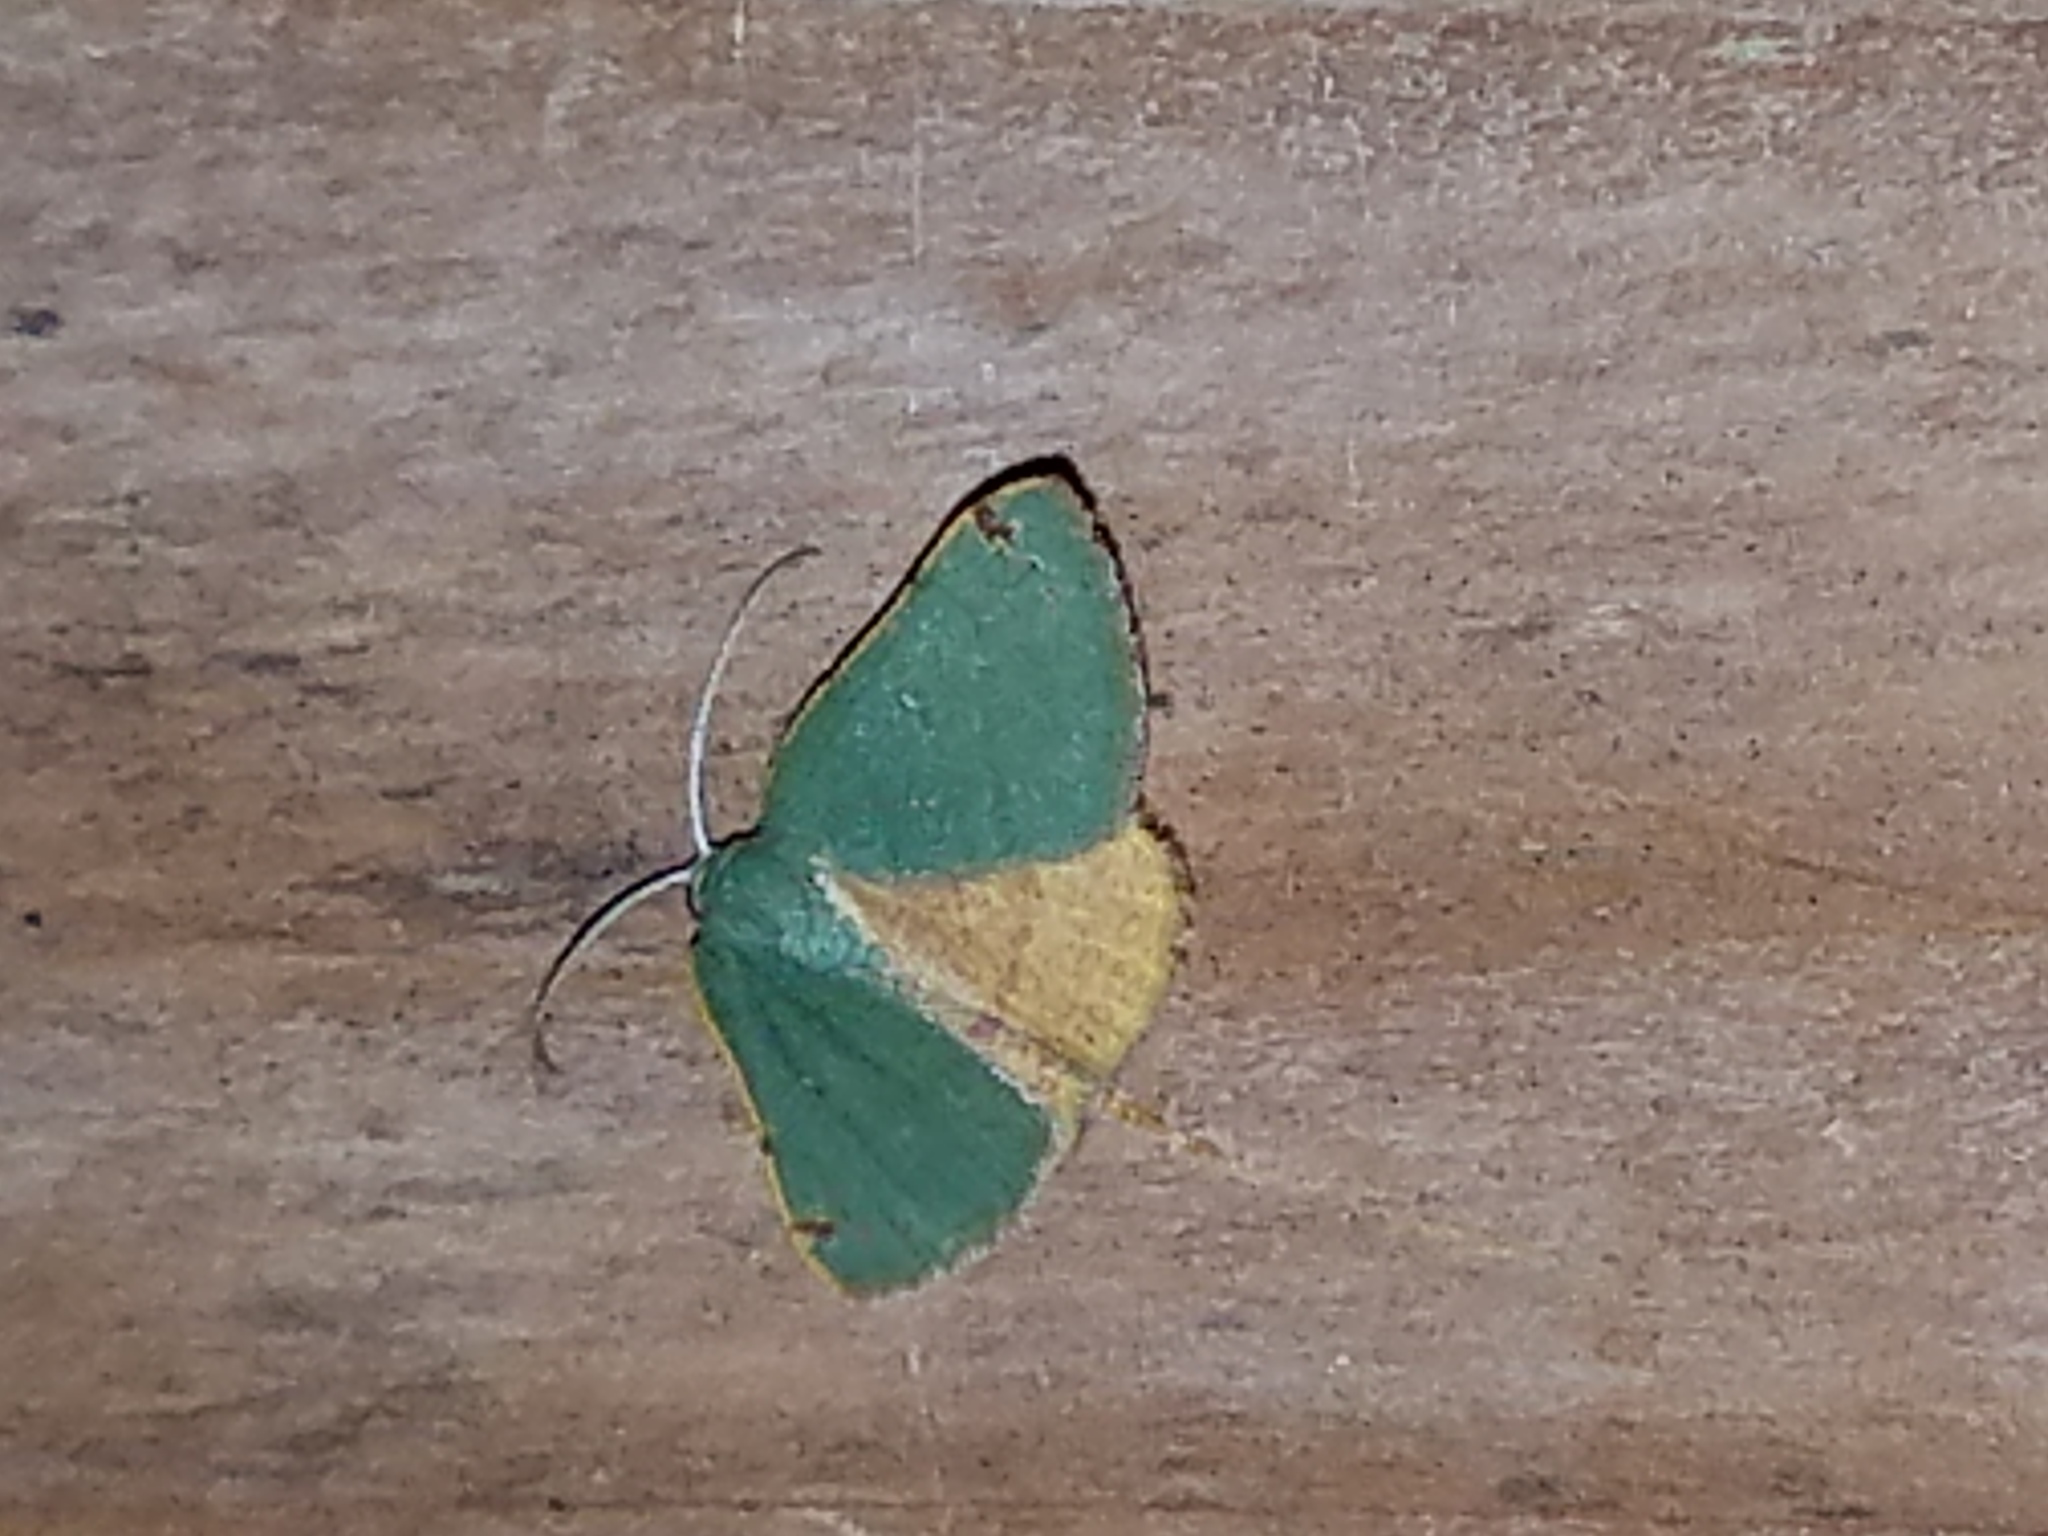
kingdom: Animalia
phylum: Arthropoda
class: Insecta
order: Lepidoptera
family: Geometridae
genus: Chloraspilates
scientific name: Chloraspilates bicoloraria
